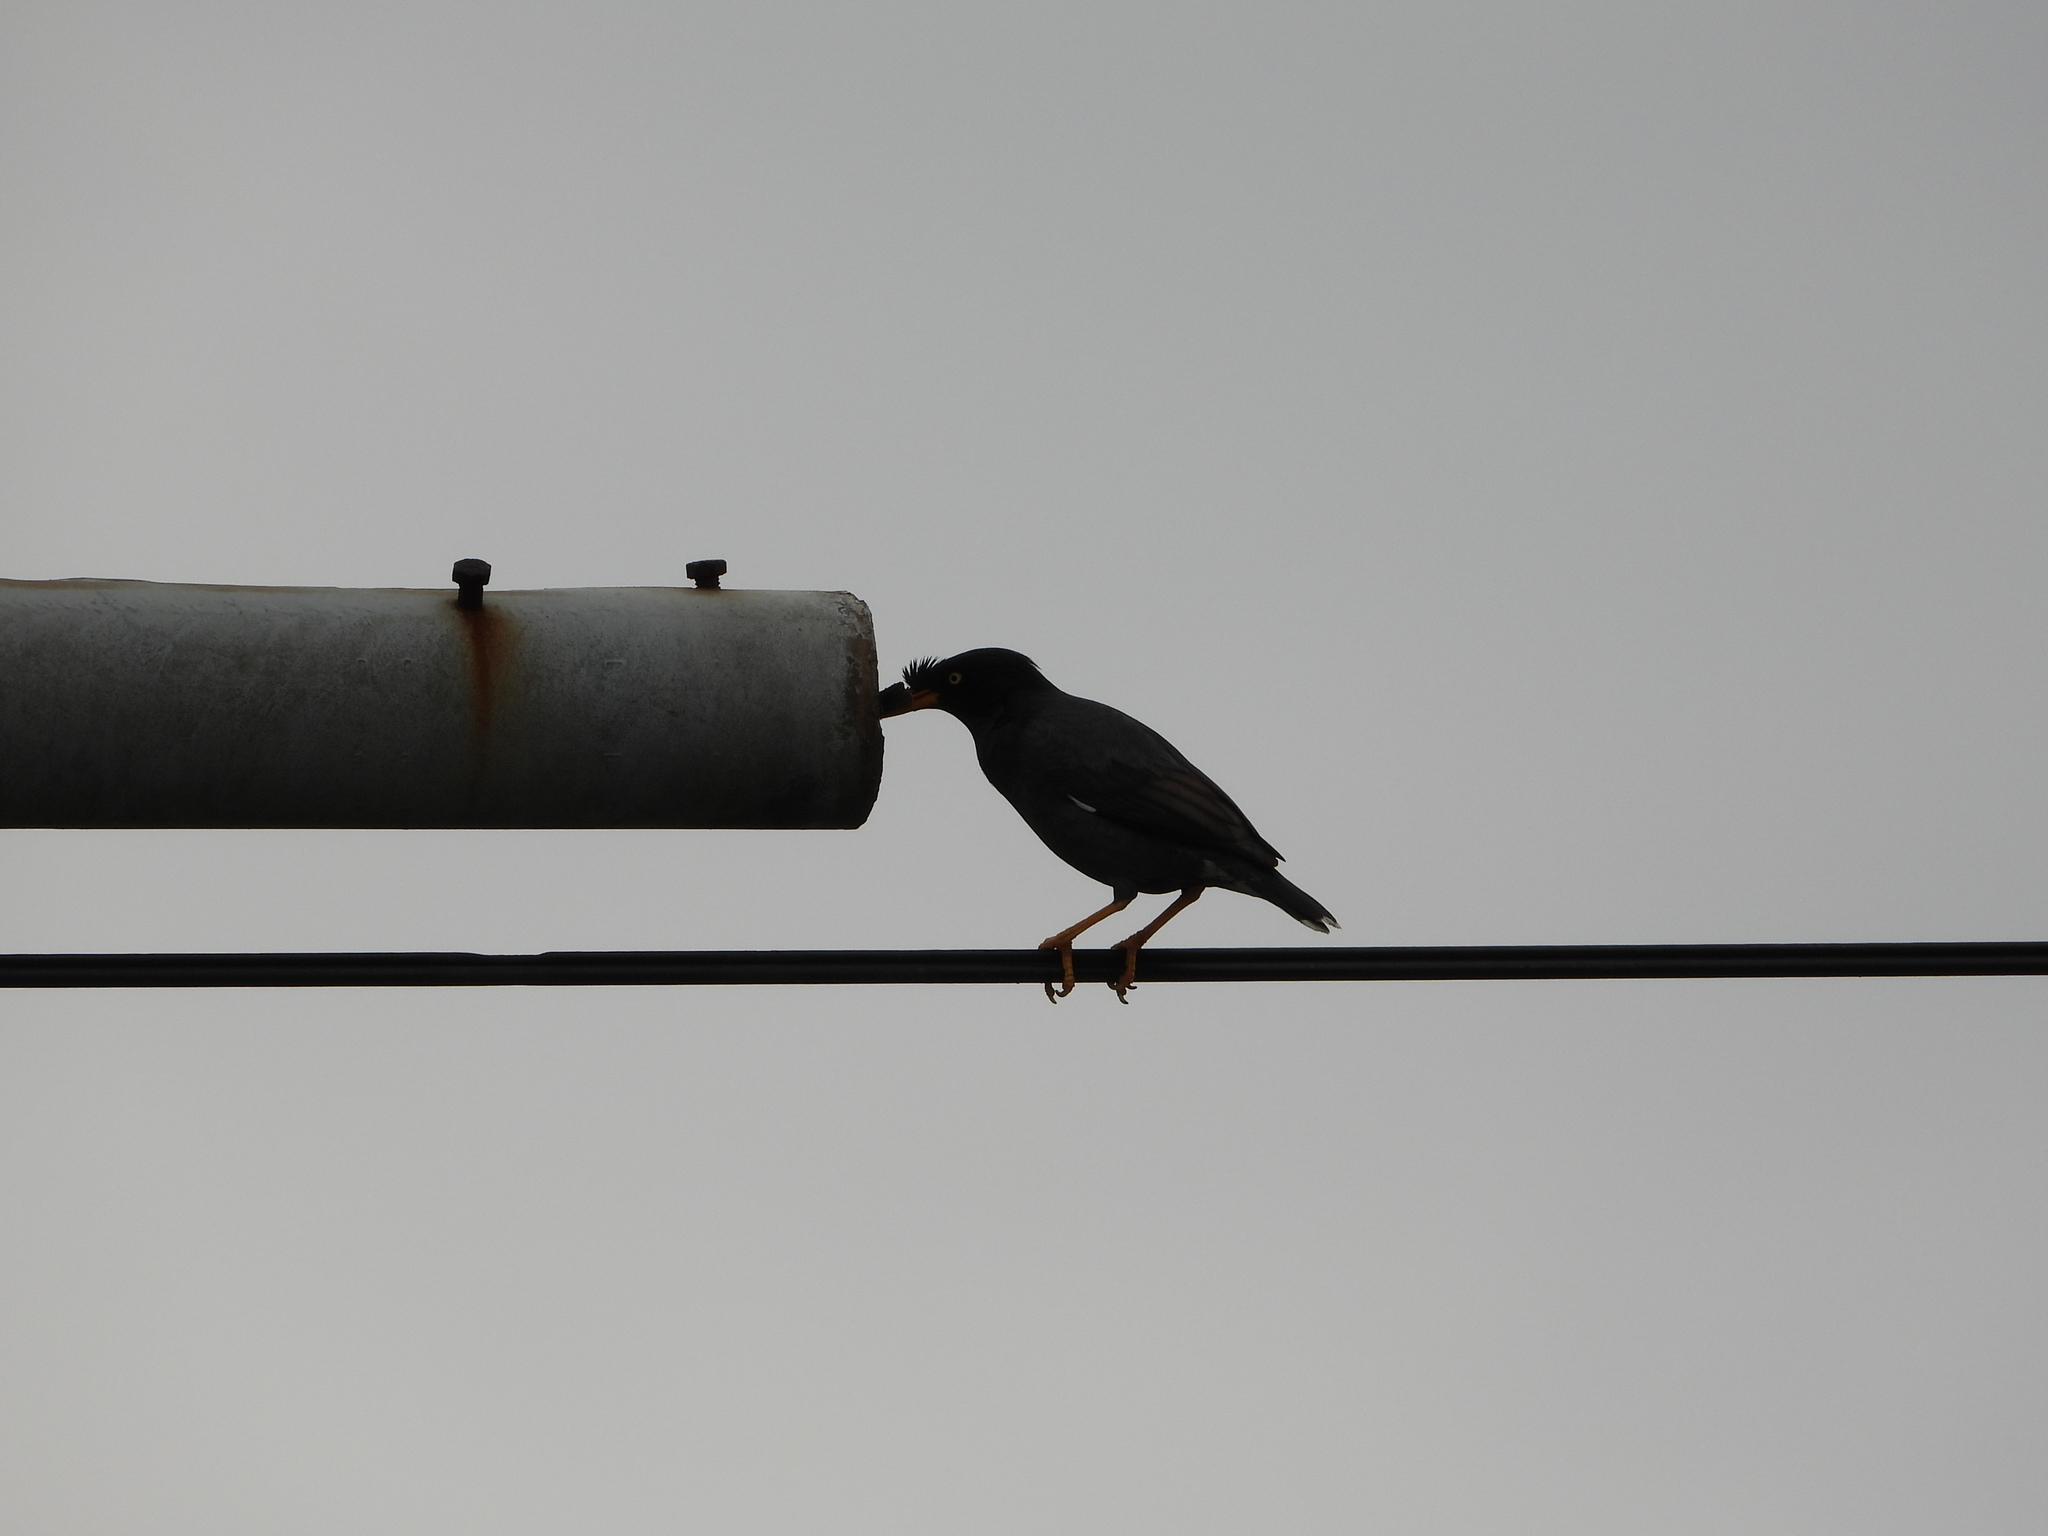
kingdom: Animalia
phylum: Chordata
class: Aves
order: Passeriformes
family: Sturnidae
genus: Acridotheres
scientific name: Acridotheres javanicus
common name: Javan myna
